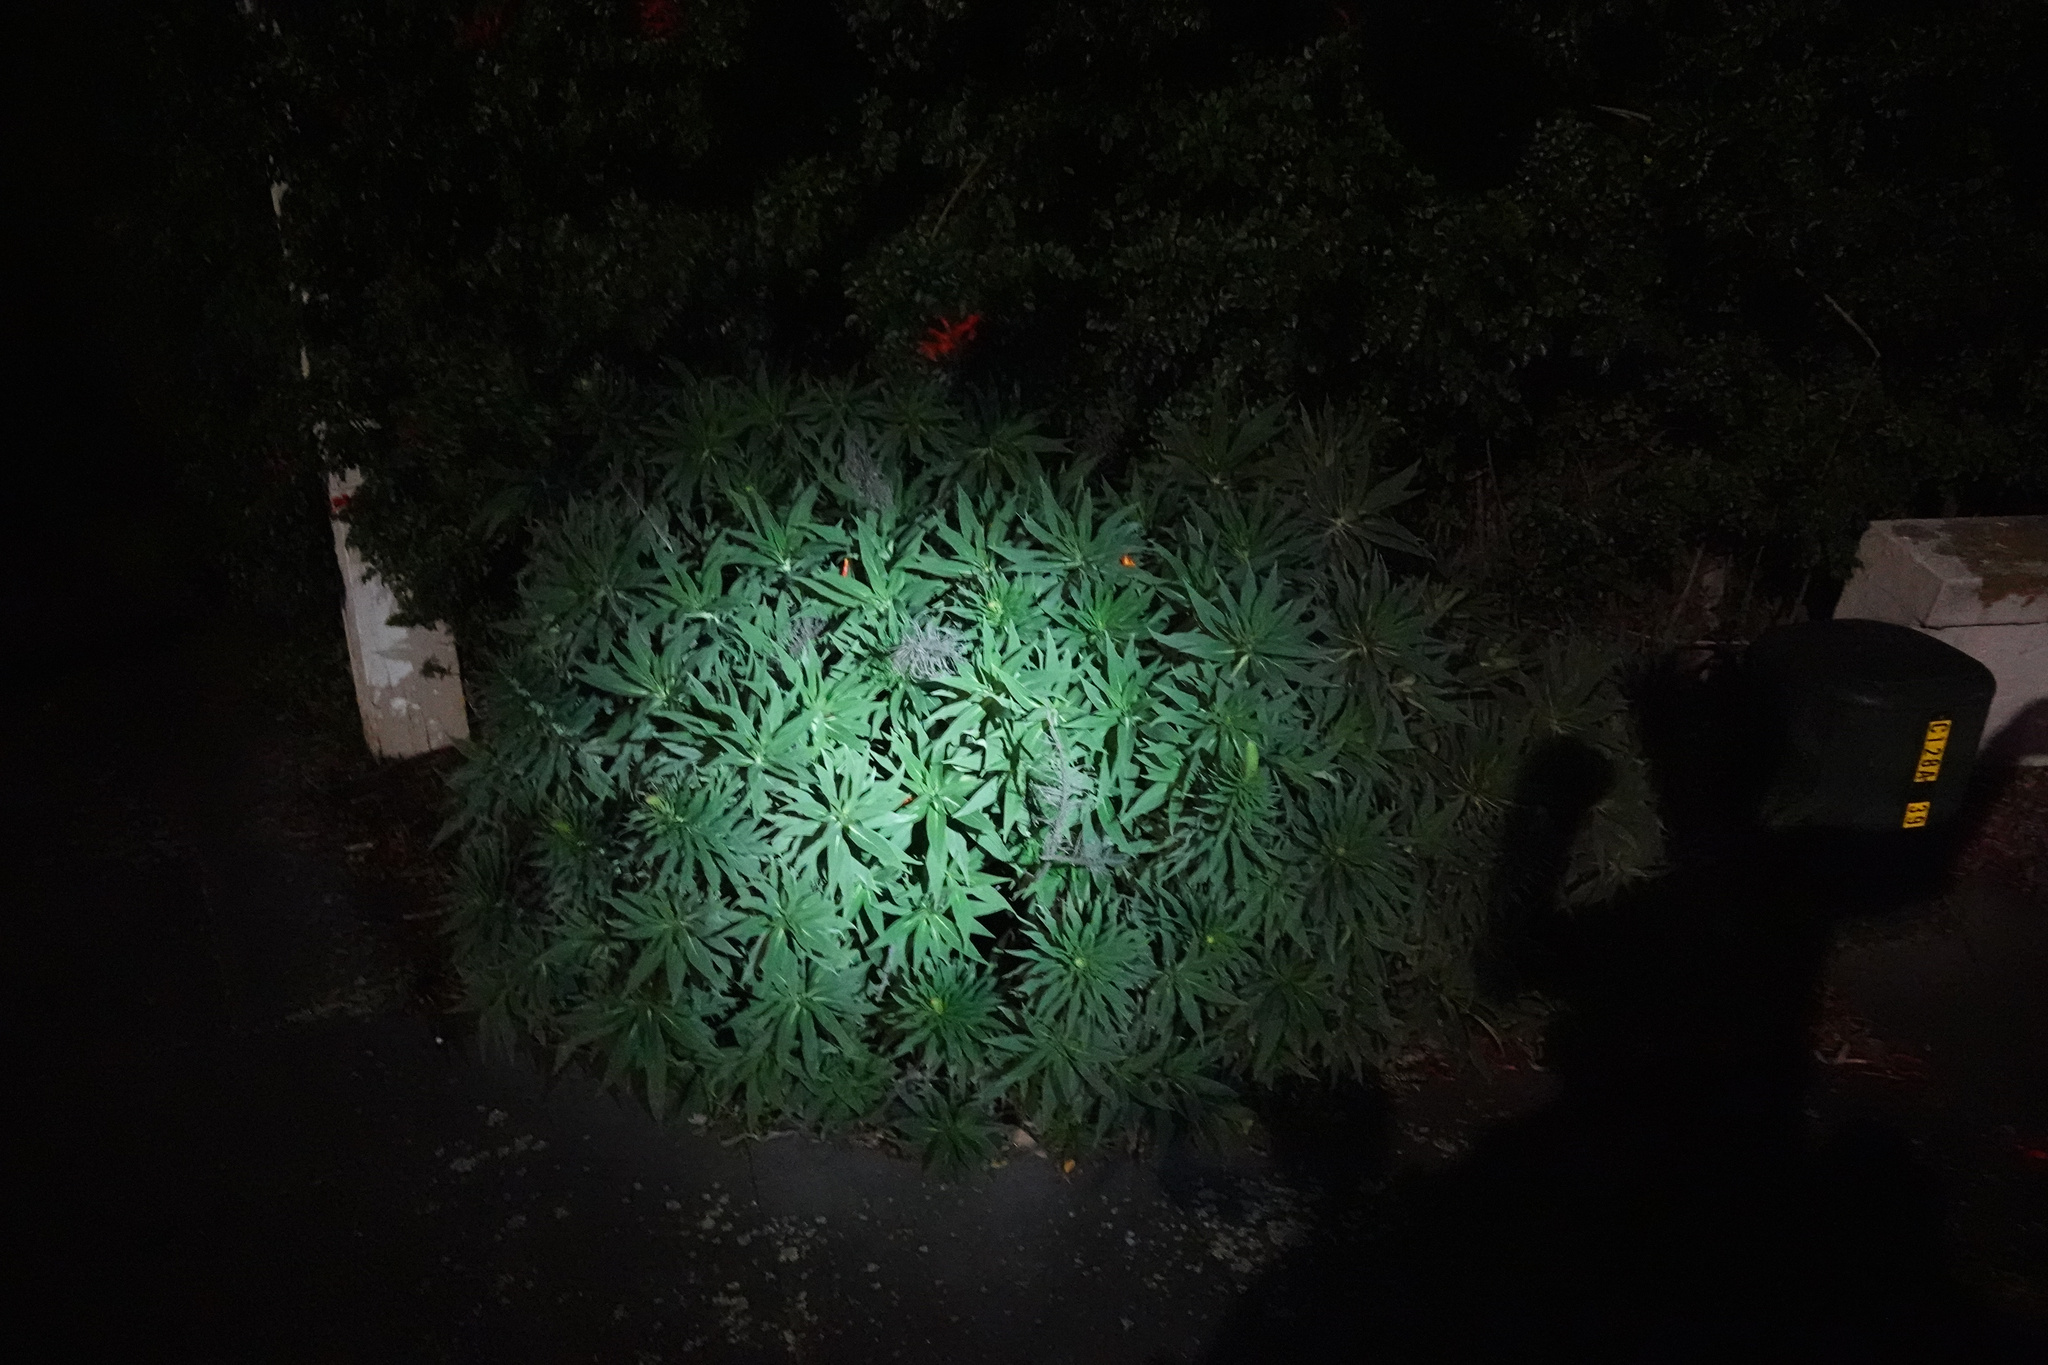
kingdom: Plantae
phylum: Tracheophyta
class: Magnoliopsida
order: Boraginales
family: Boraginaceae
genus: Echium
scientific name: Echium candicans
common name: Pride of madeira
